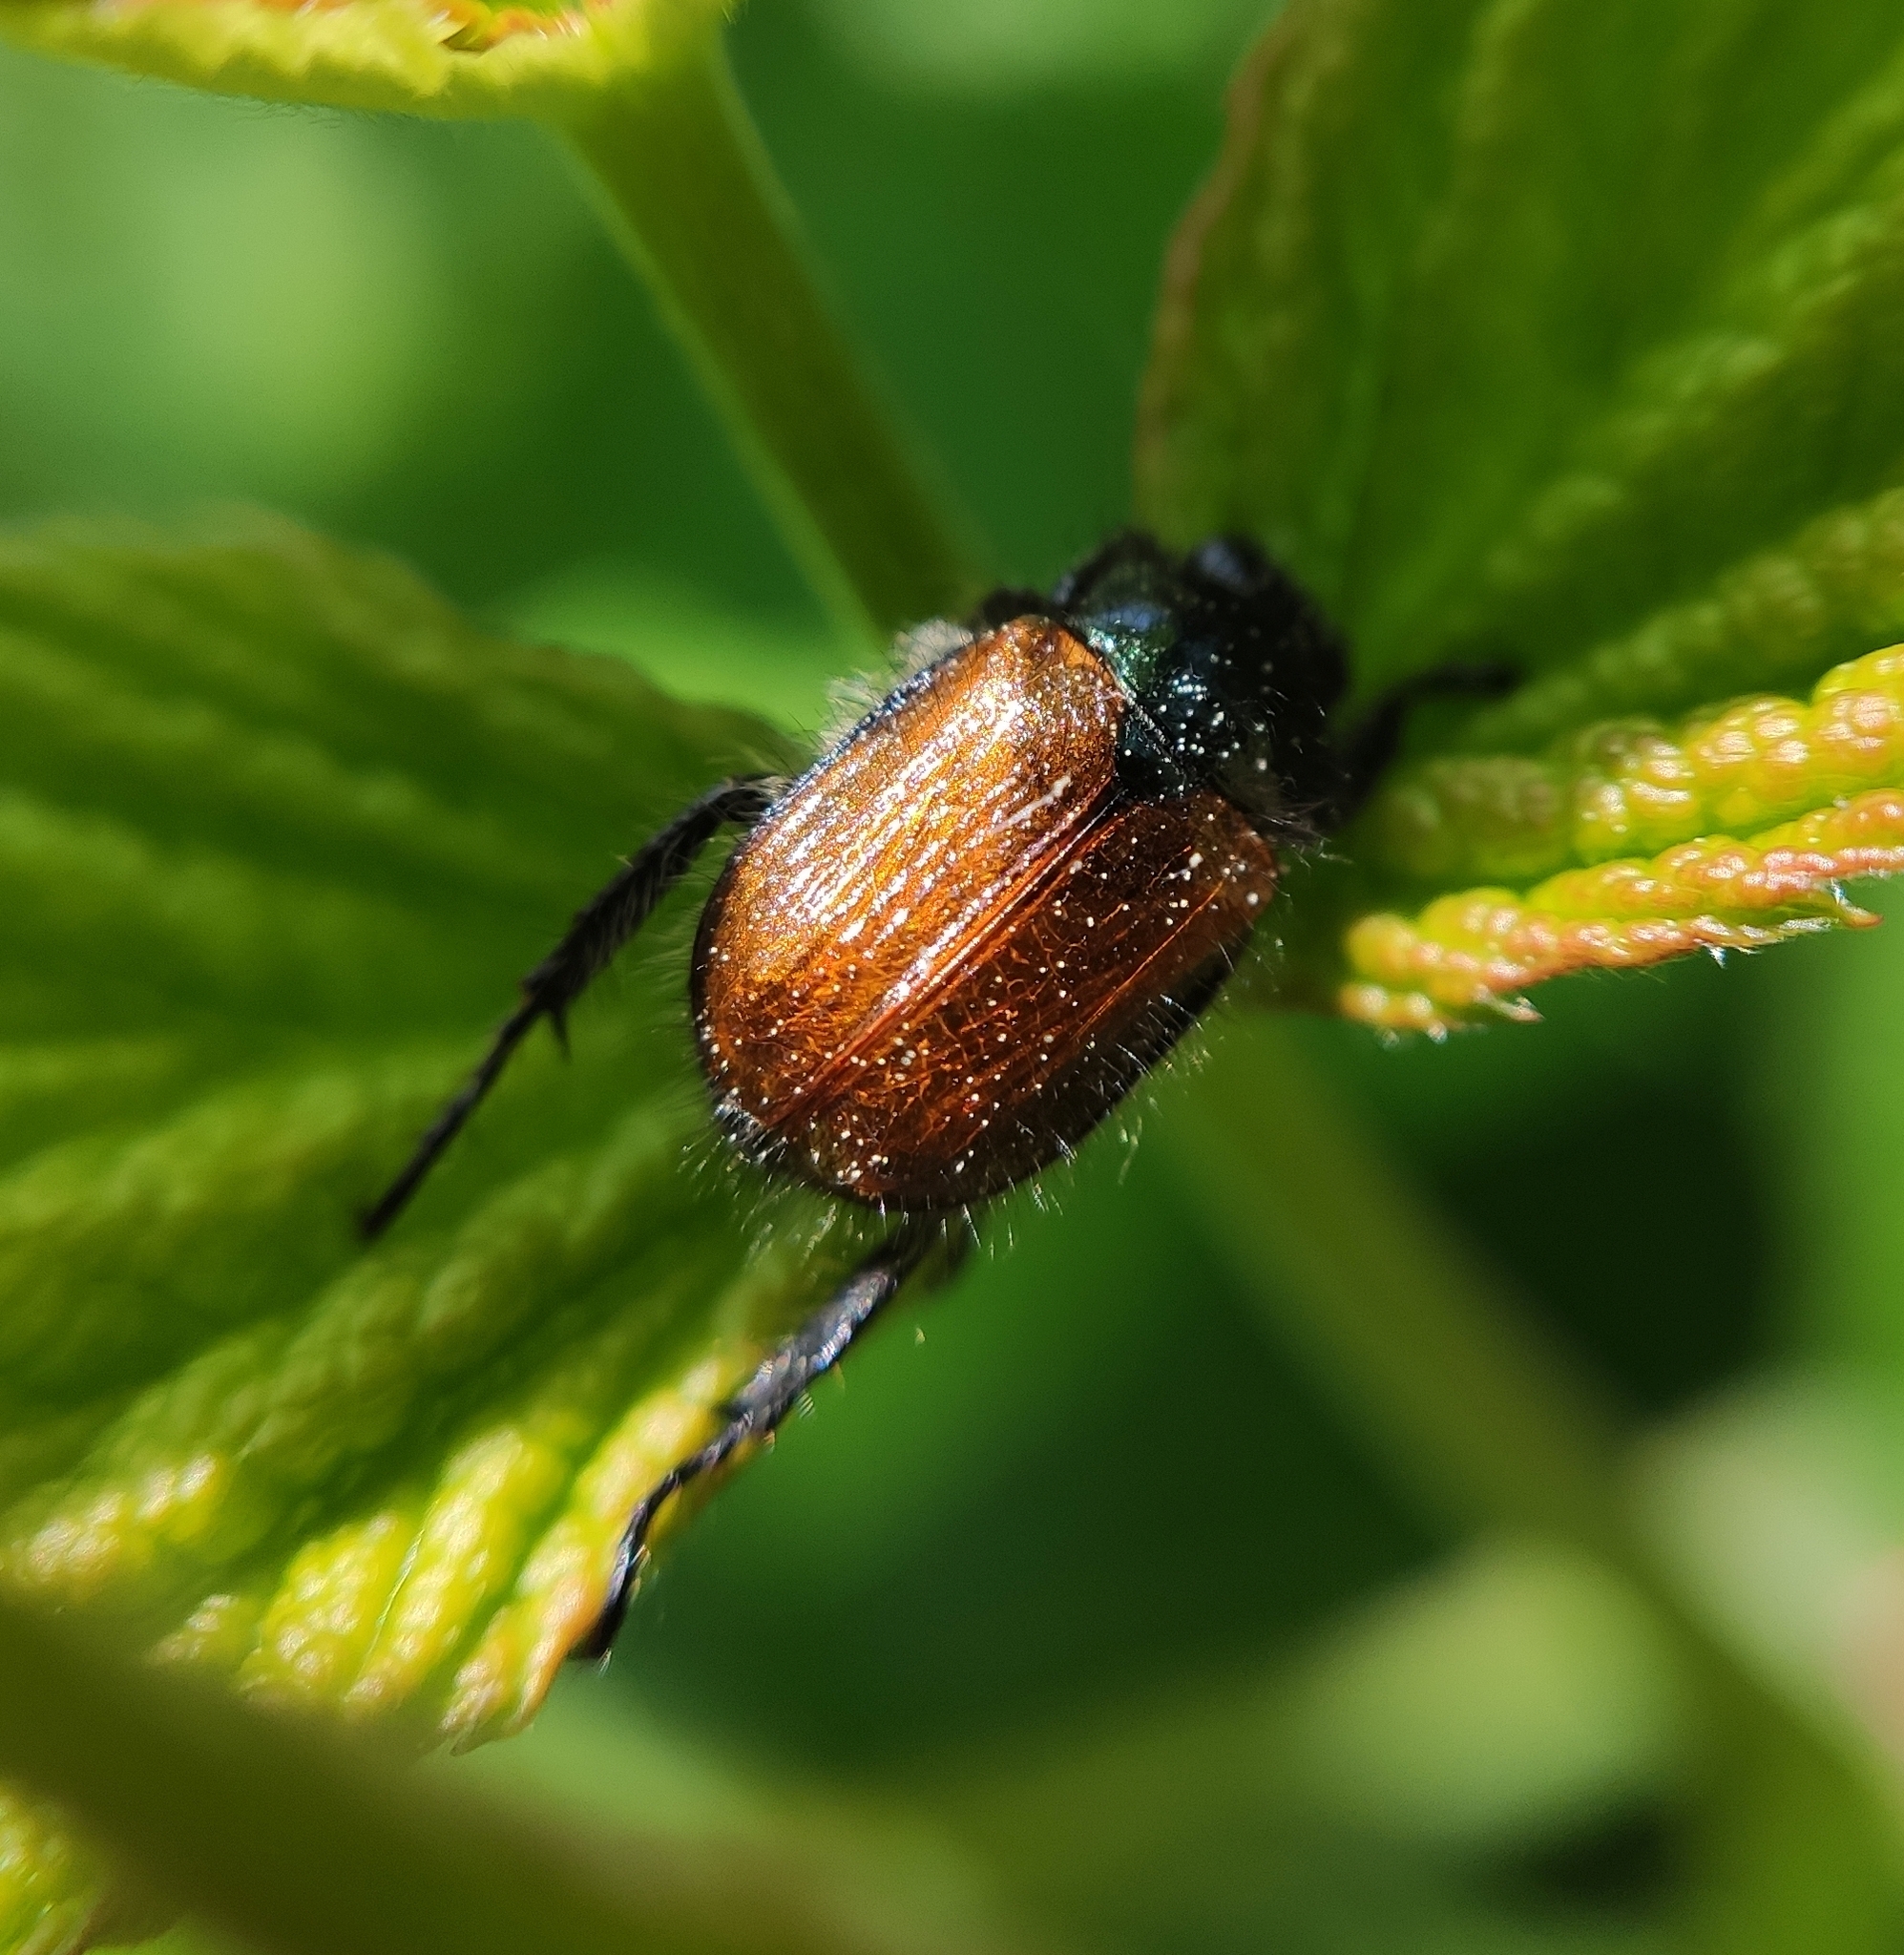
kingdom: Animalia
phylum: Arthropoda
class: Insecta
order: Coleoptera
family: Scarabaeidae
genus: Phyllopertha
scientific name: Phyllopertha horticola
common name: Garden chafer
